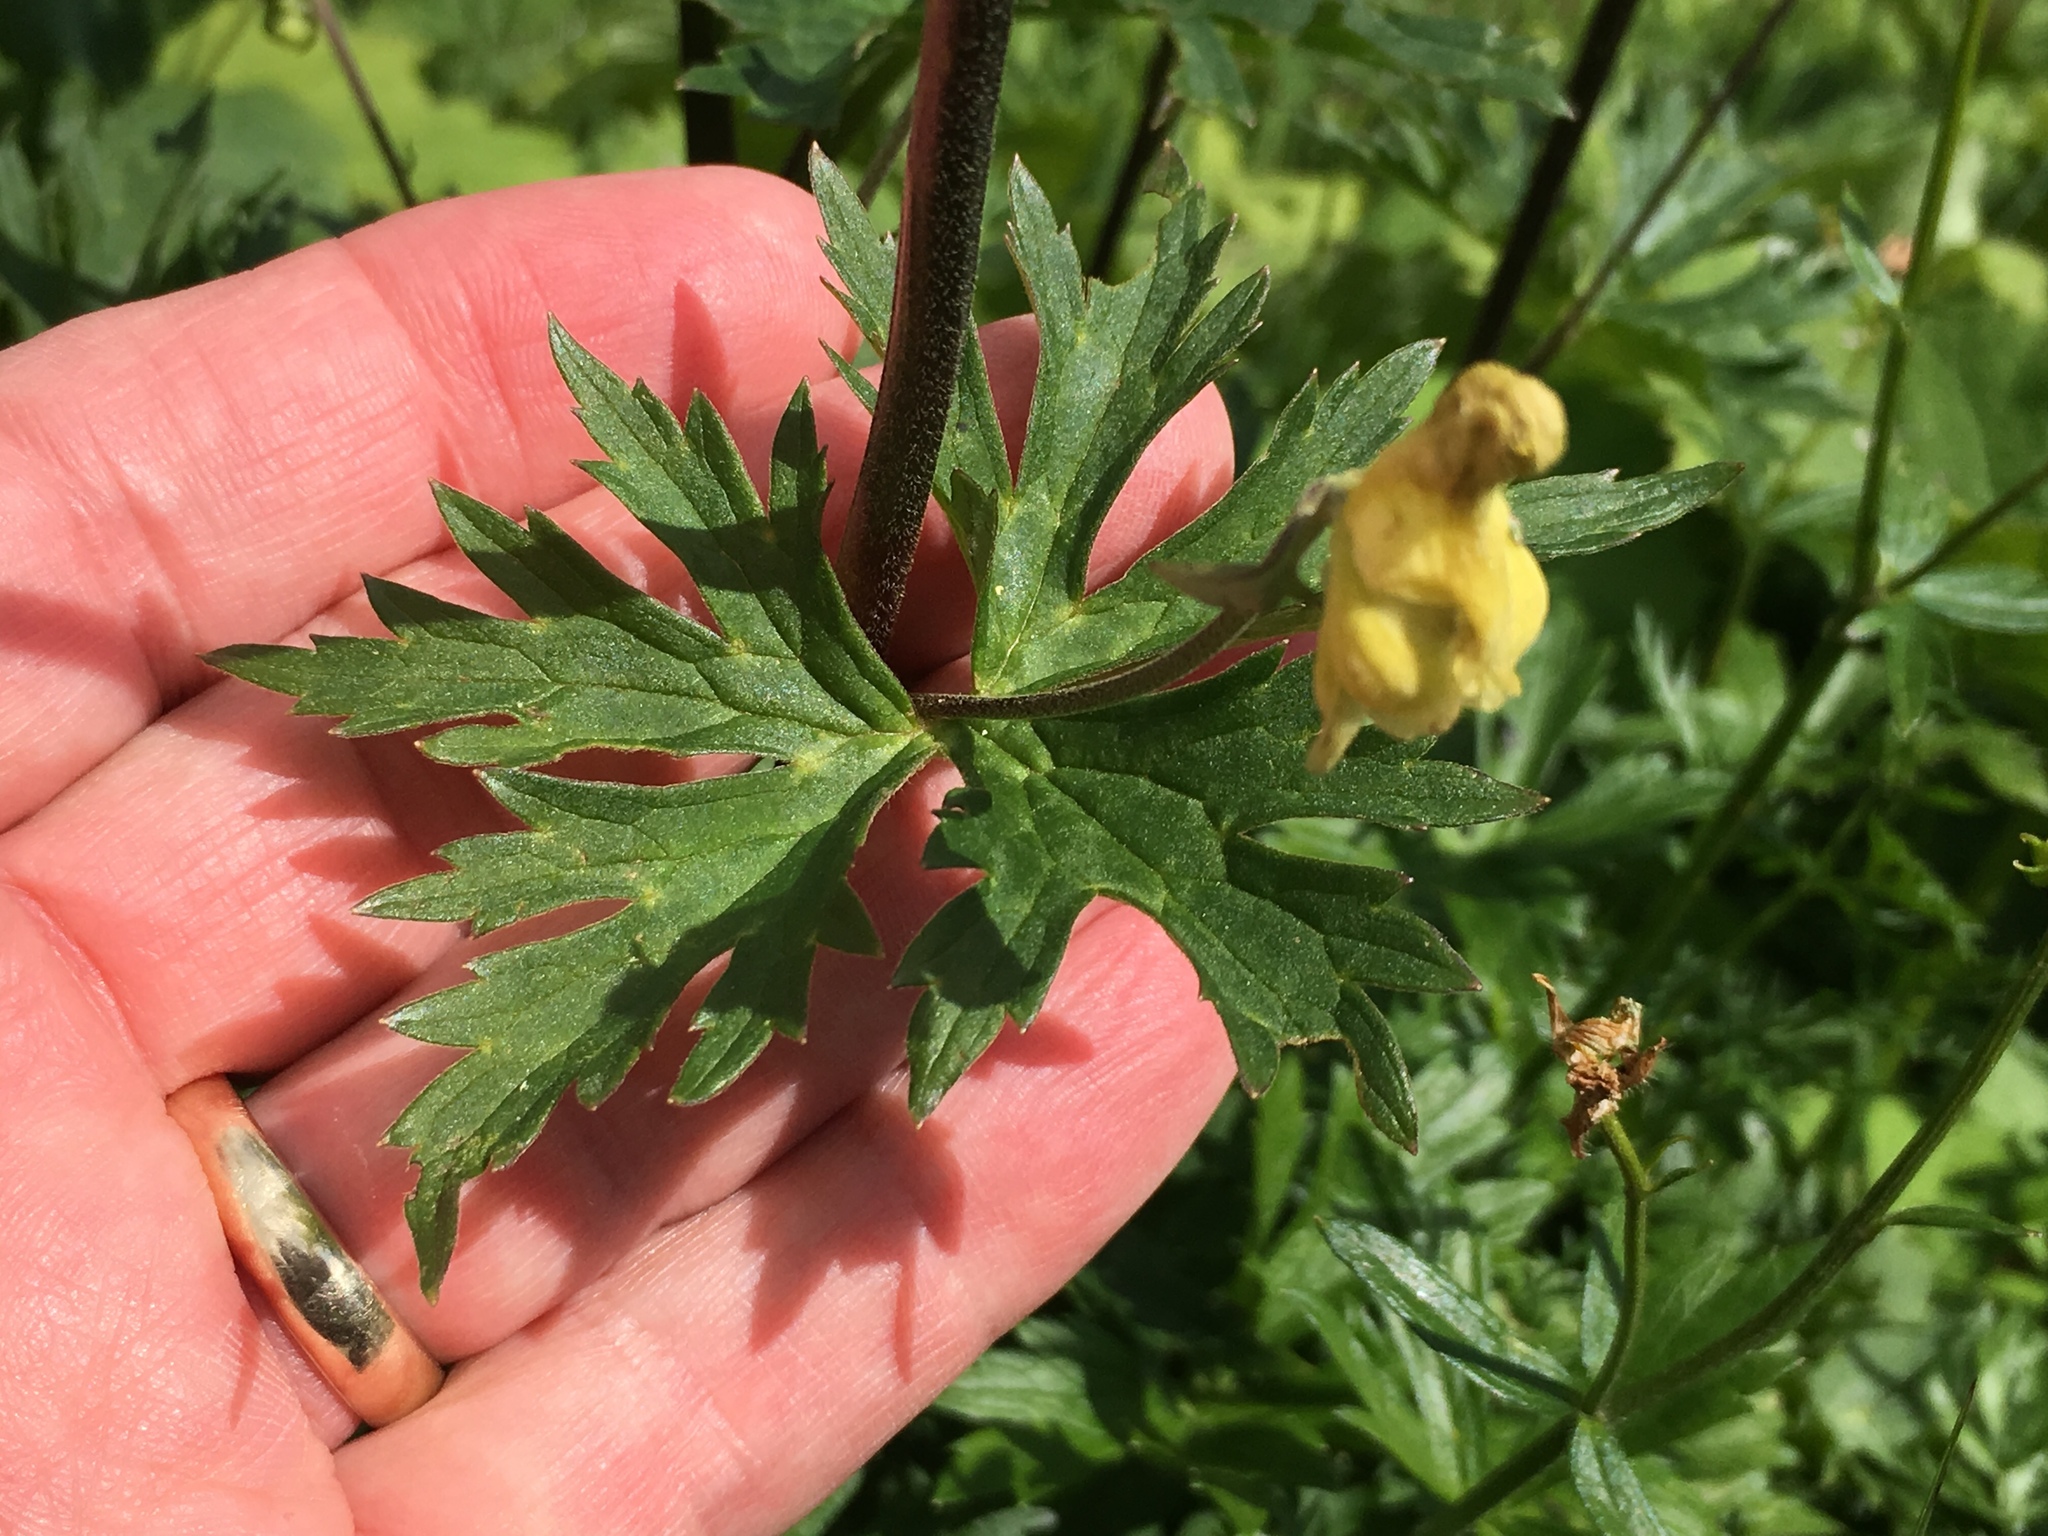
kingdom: Plantae
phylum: Tracheophyta
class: Magnoliopsida
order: Ranunculales
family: Ranunculaceae
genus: Aconitum
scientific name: Aconitum lycoctonum
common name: Wolf's-bane
